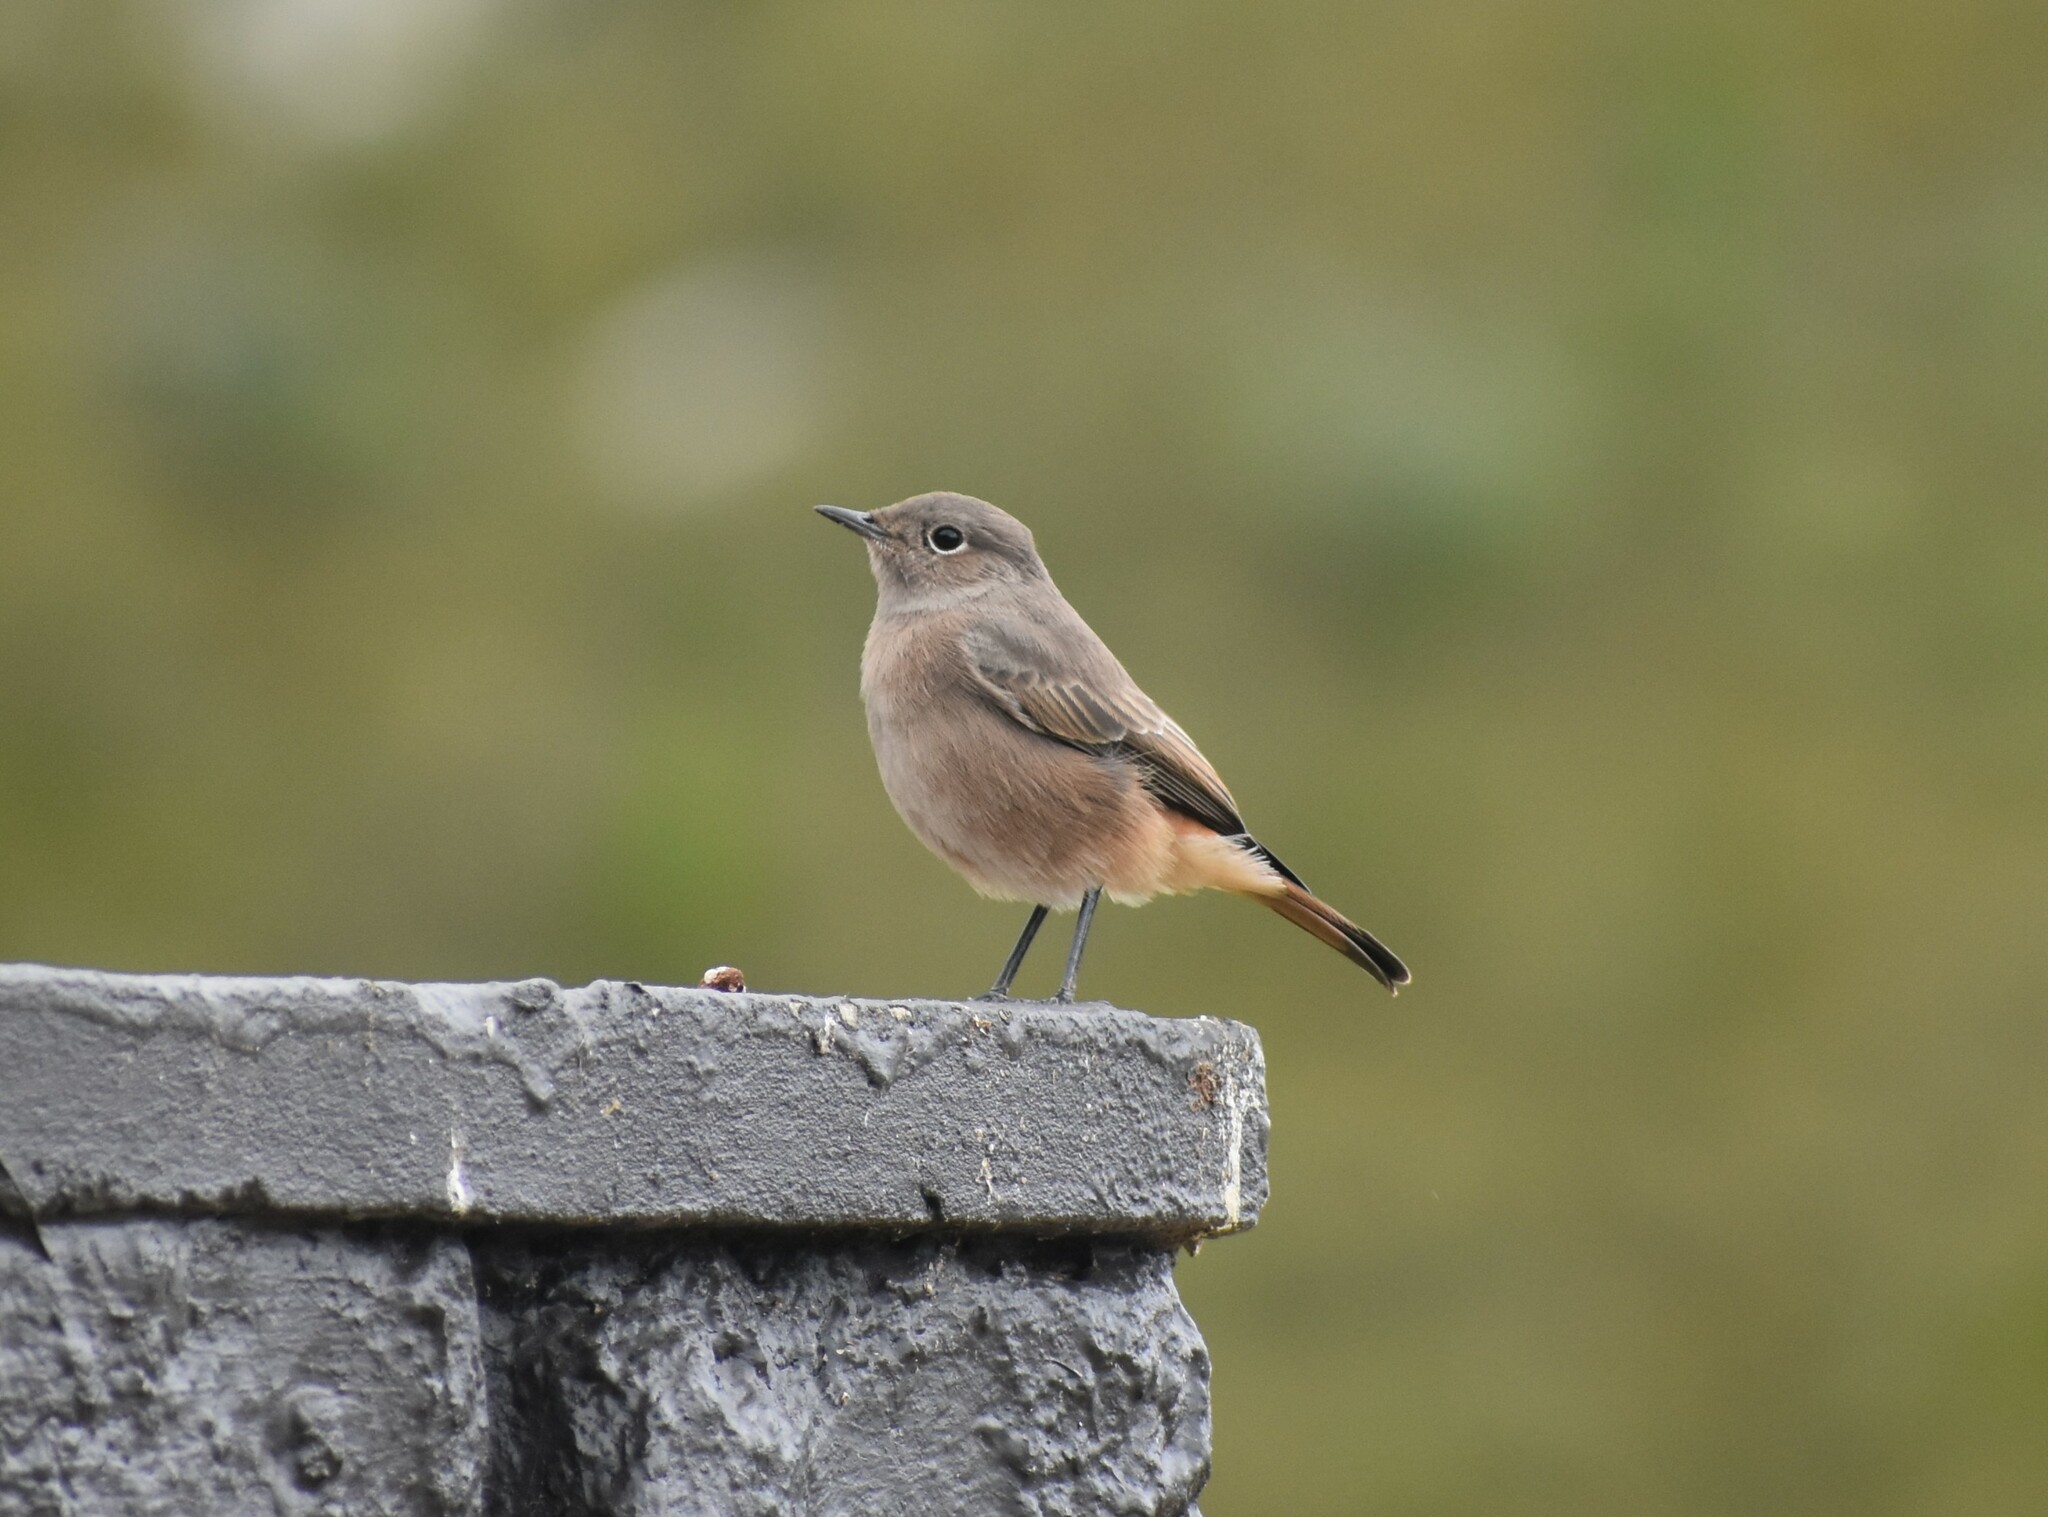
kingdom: Animalia
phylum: Chordata
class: Aves
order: Passeriformes
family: Muscicapidae
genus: Oenanthe
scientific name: Oenanthe familiaris
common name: Familiar chat
